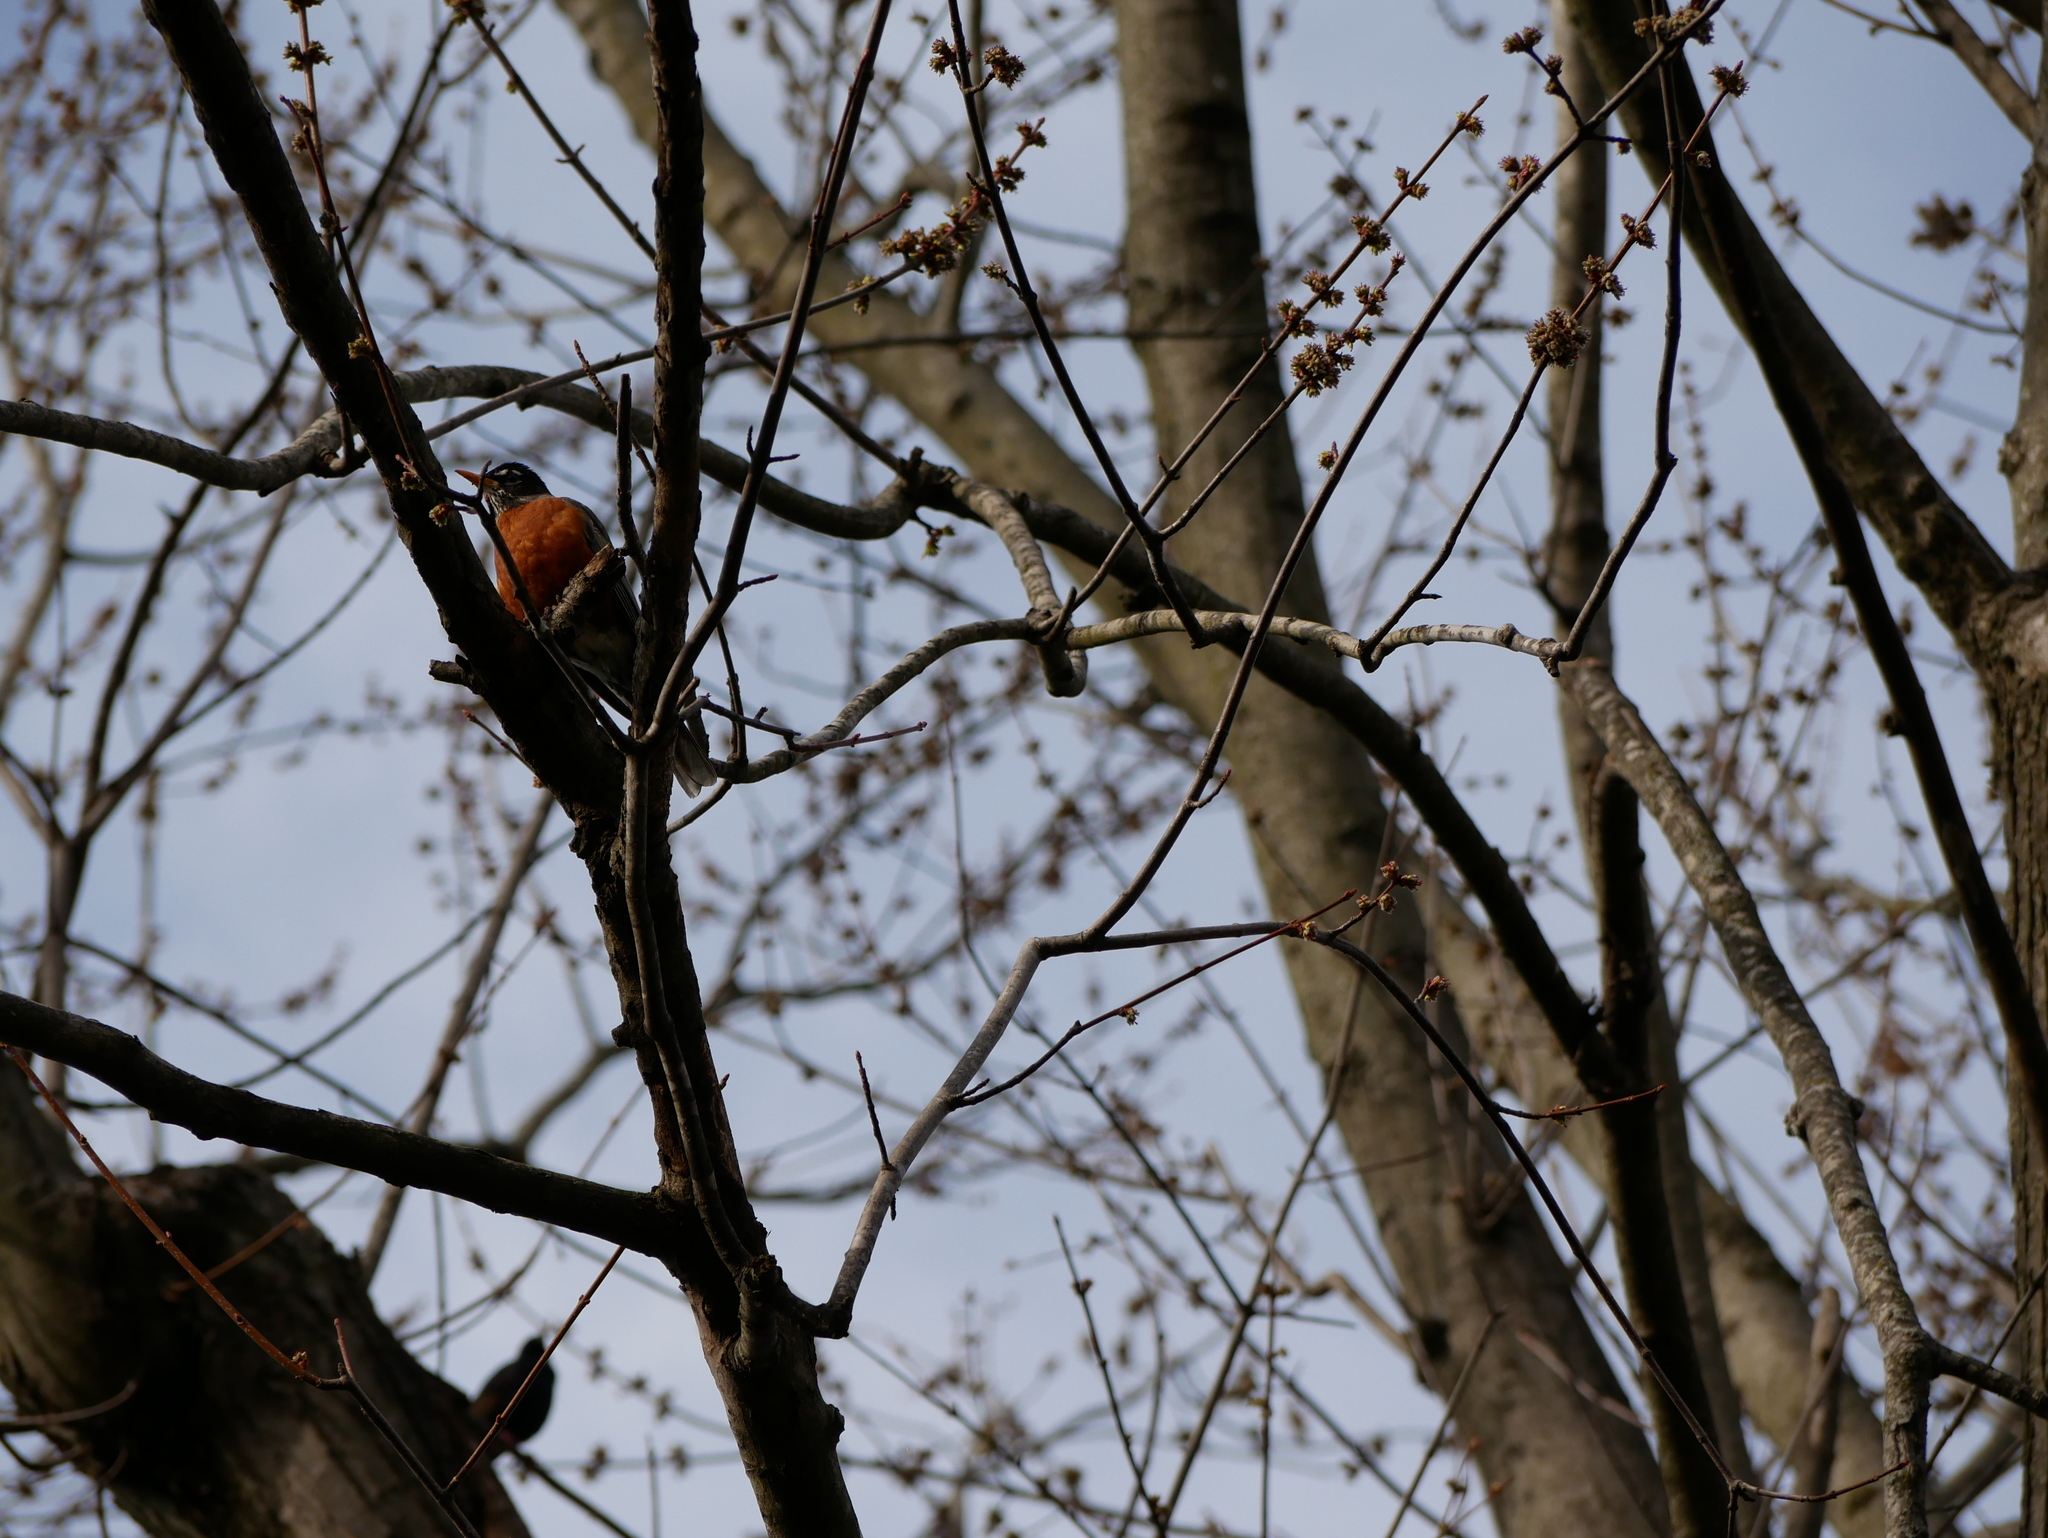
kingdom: Animalia
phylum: Chordata
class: Aves
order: Passeriformes
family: Turdidae
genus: Turdus
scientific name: Turdus migratorius
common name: American robin
